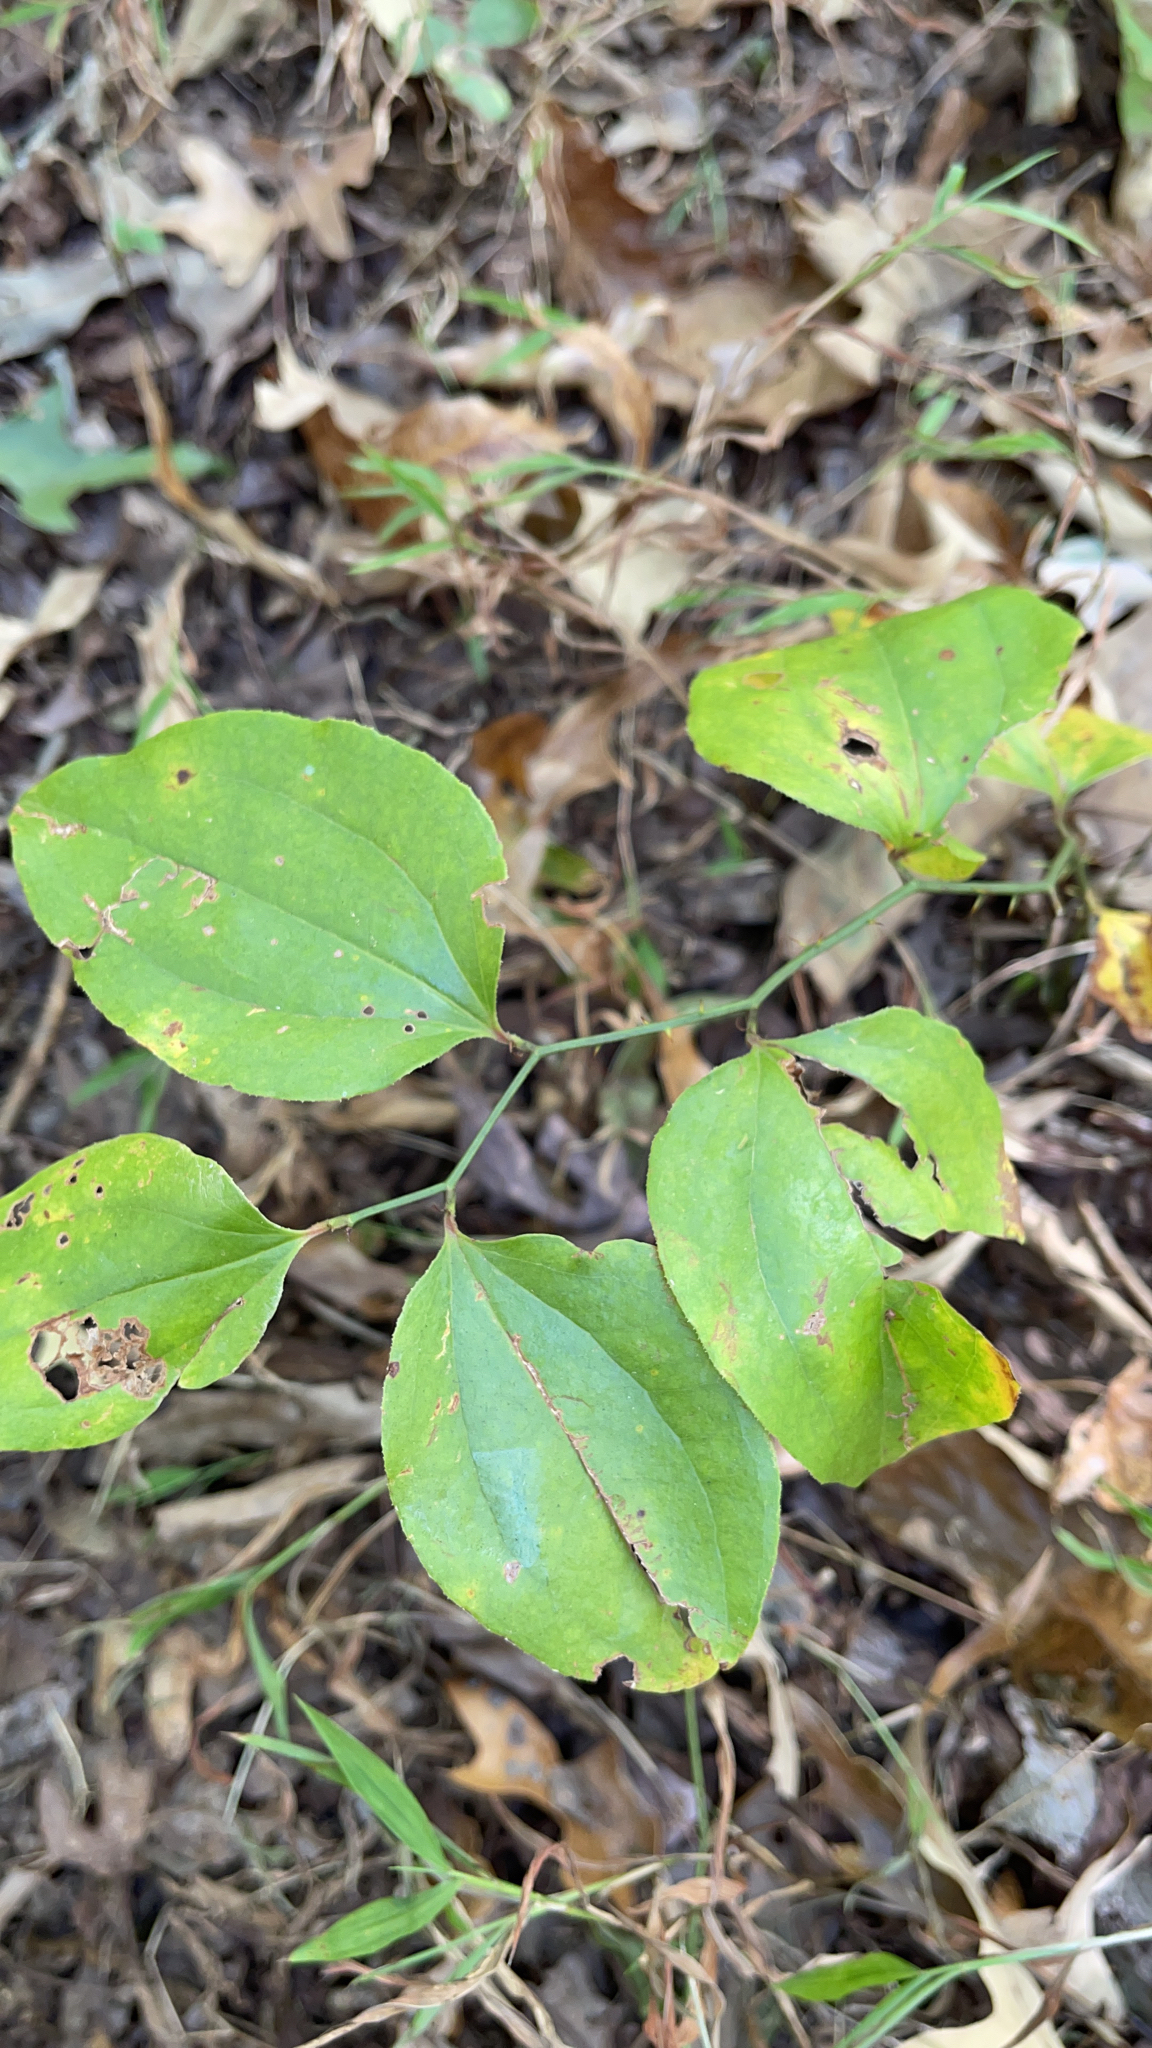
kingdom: Plantae
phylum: Tracheophyta
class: Liliopsida
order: Liliales
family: Smilacaceae
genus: Smilax
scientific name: Smilax rotundifolia
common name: Bullbriar
